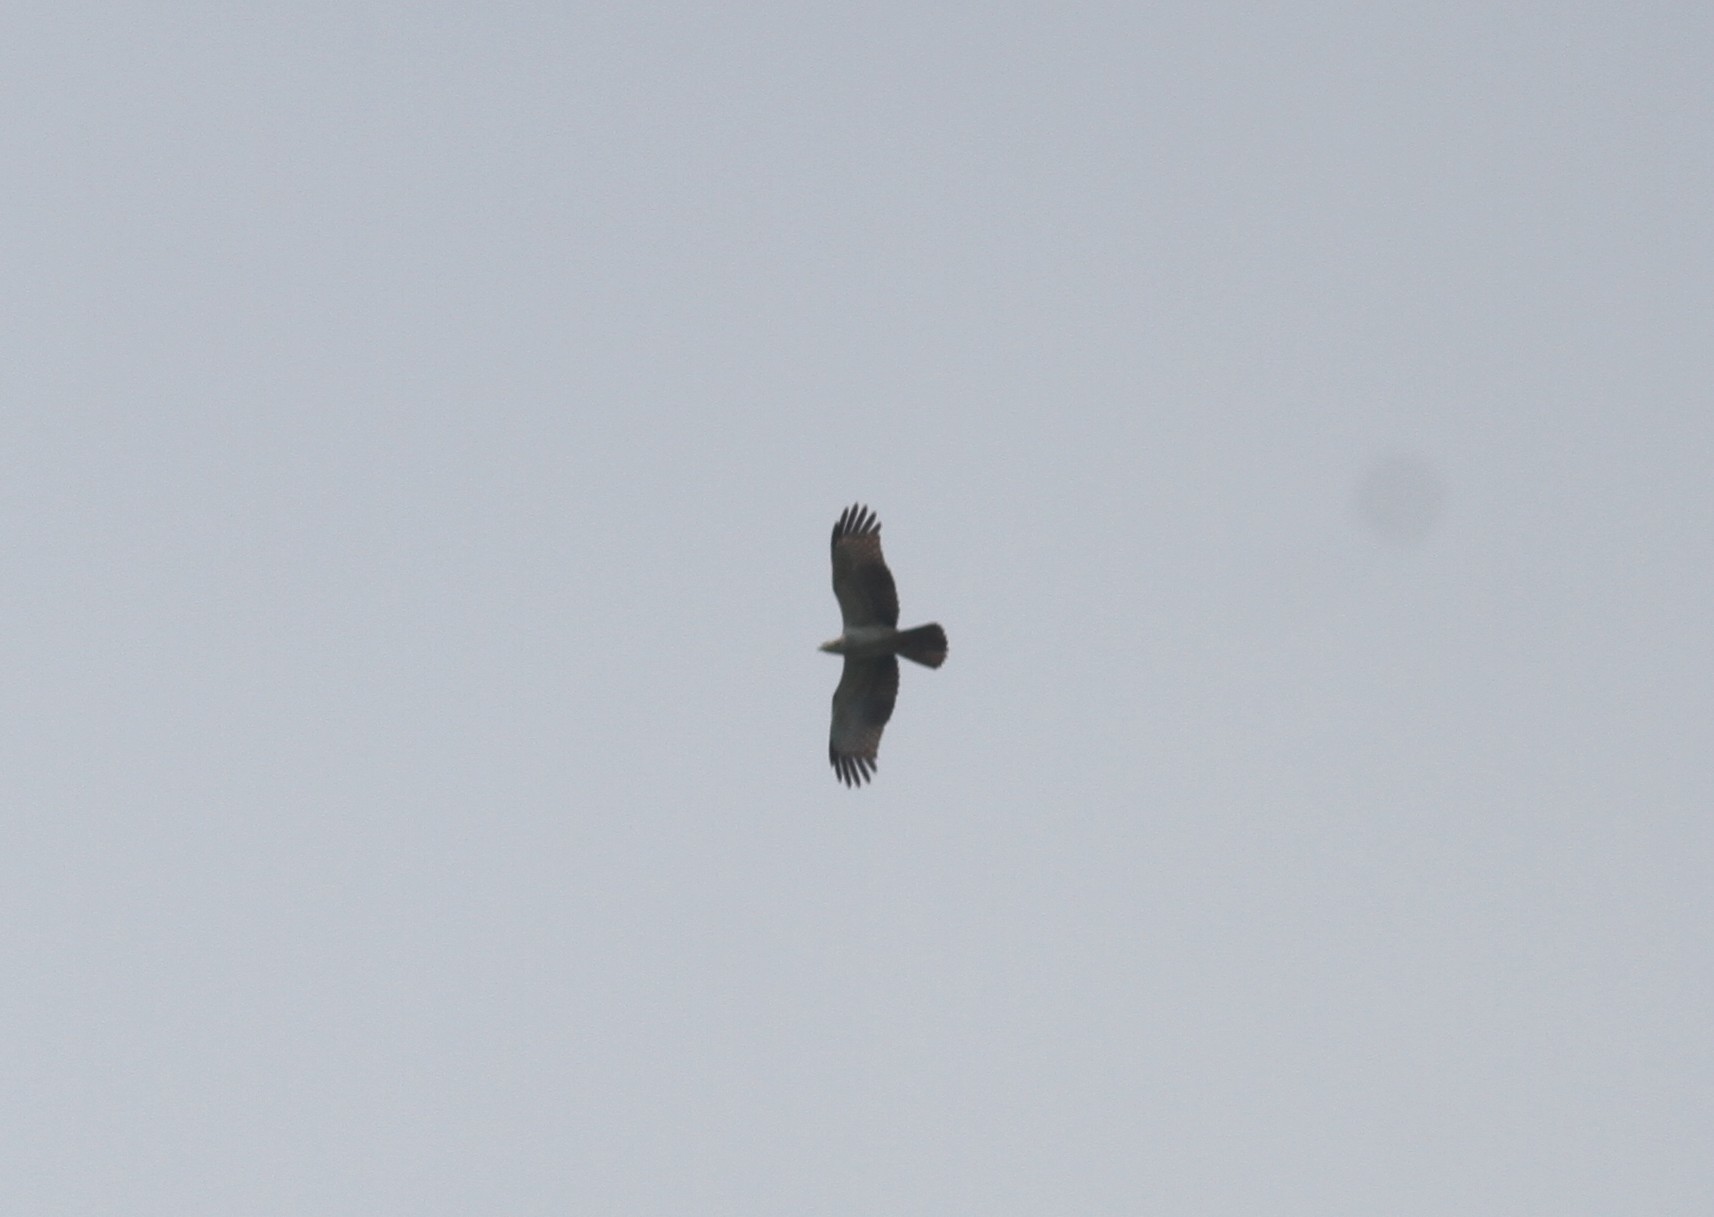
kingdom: Animalia
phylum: Chordata
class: Aves
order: Accipitriformes
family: Accipitridae
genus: Pernis
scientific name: Pernis ptilorhynchus
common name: Crested honey buzzard
